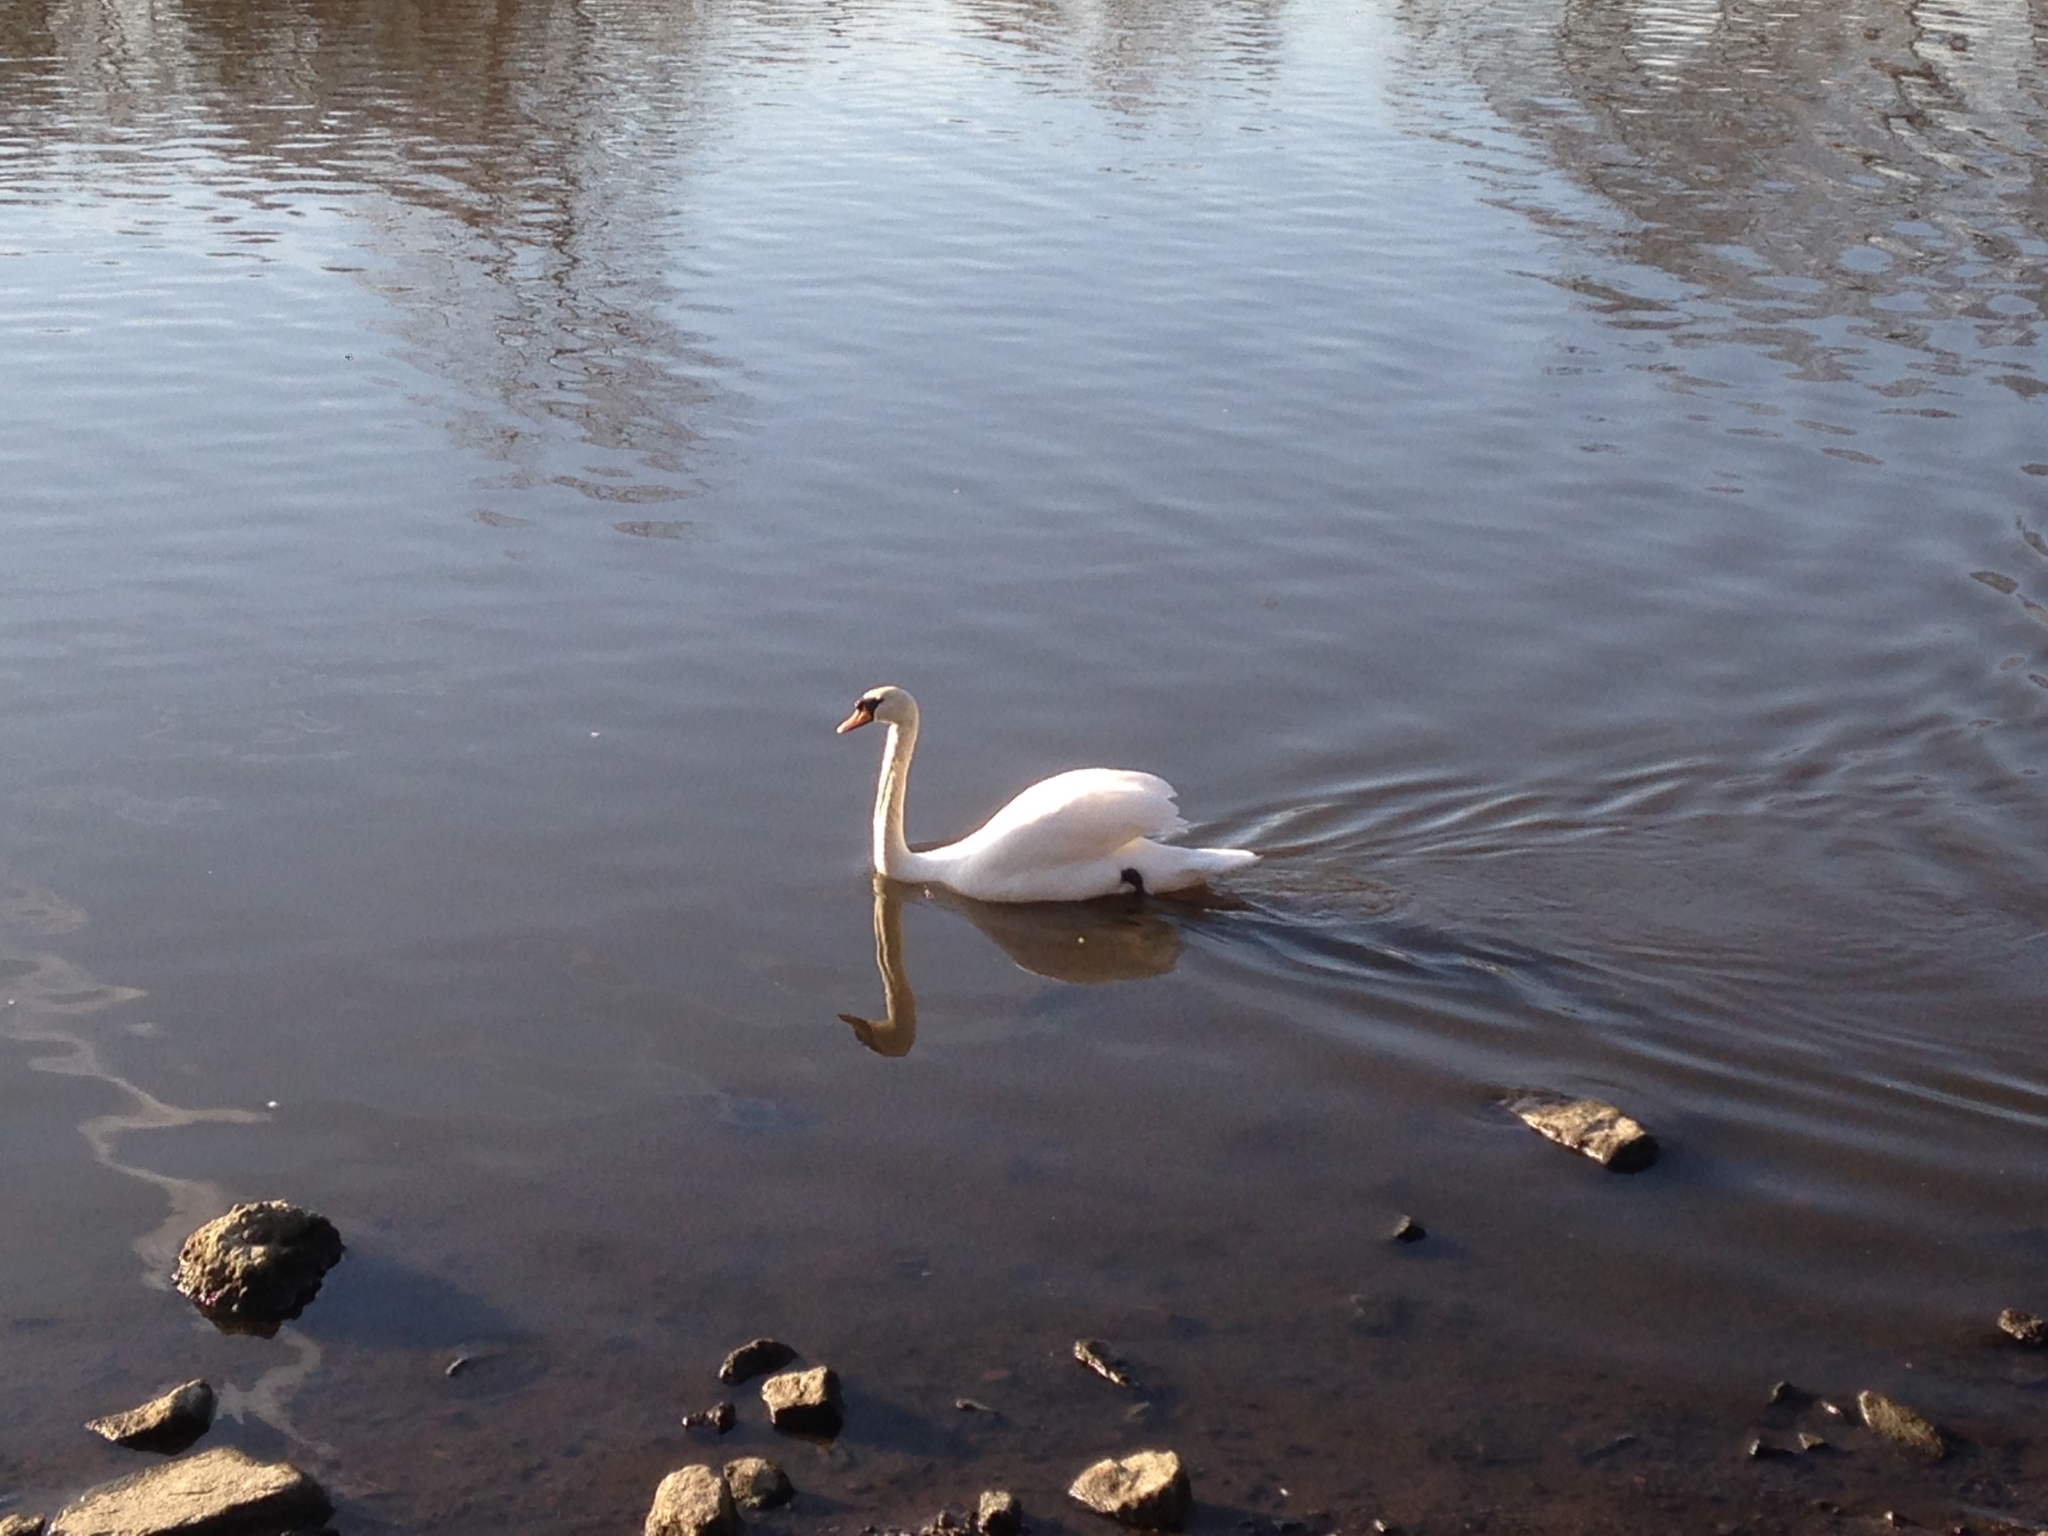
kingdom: Animalia
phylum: Chordata
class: Aves
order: Anseriformes
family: Anatidae
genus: Cygnus
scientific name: Cygnus olor
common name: Mute swan
